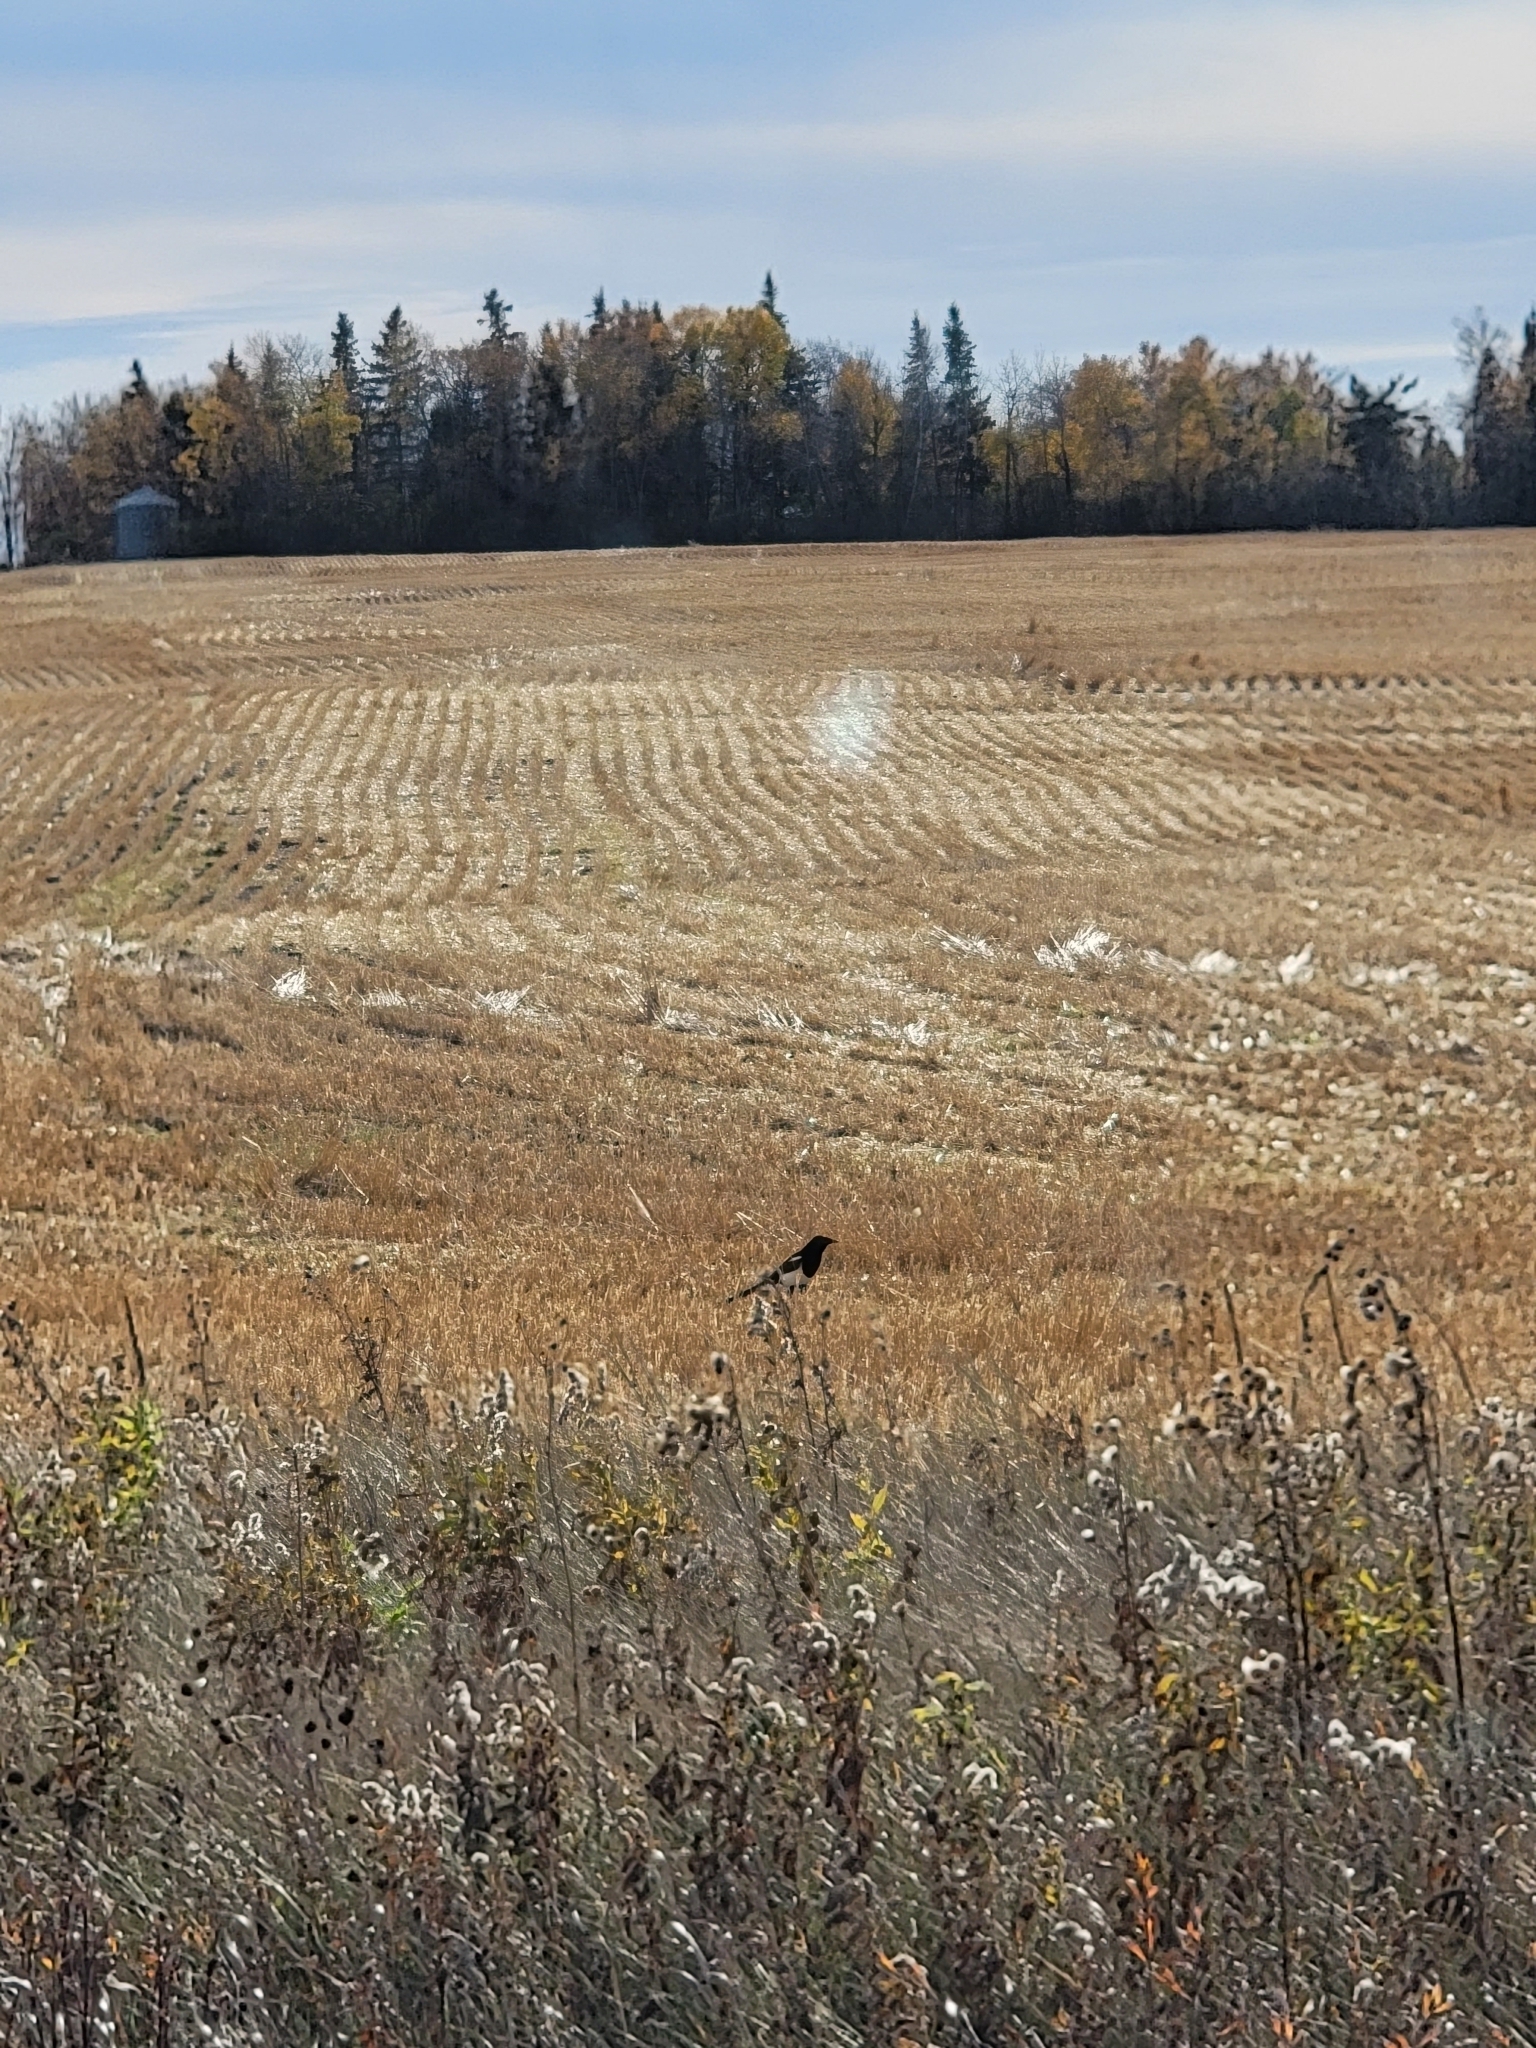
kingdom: Animalia
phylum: Chordata
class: Aves
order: Passeriformes
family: Corvidae
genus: Pica
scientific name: Pica hudsonia
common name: Black-billed magpie
